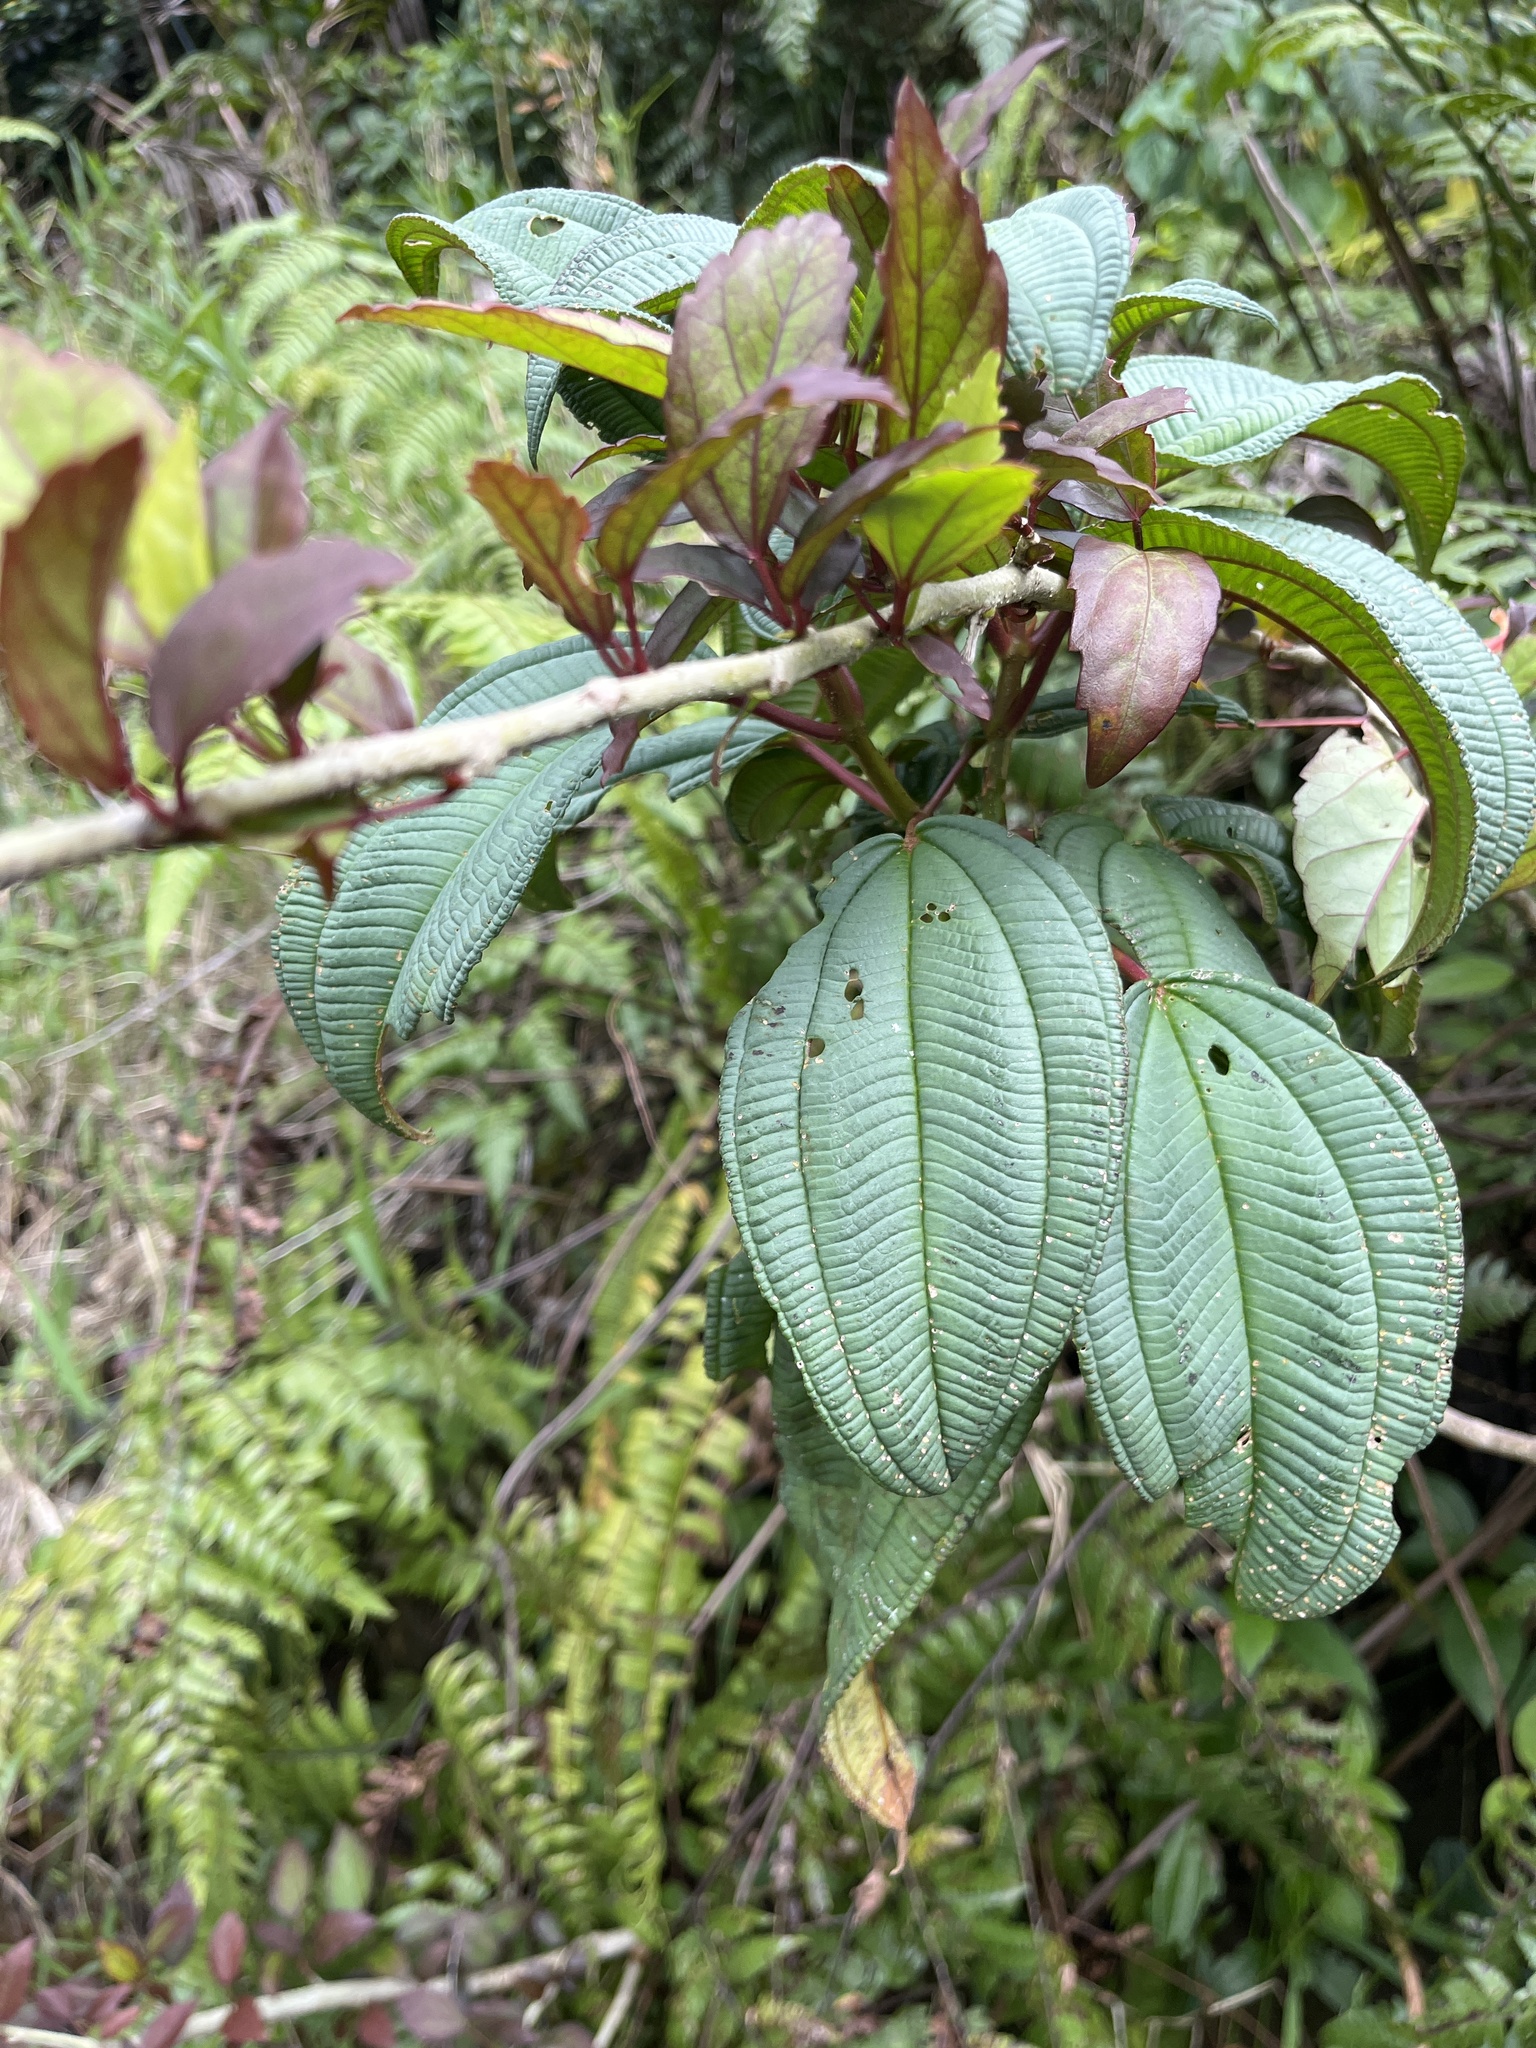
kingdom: Plantae
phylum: Tracheophyta
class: Magnoliopsida
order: Myrtales
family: Melastomataceae
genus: Miconia
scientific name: Miconia sintenisii
